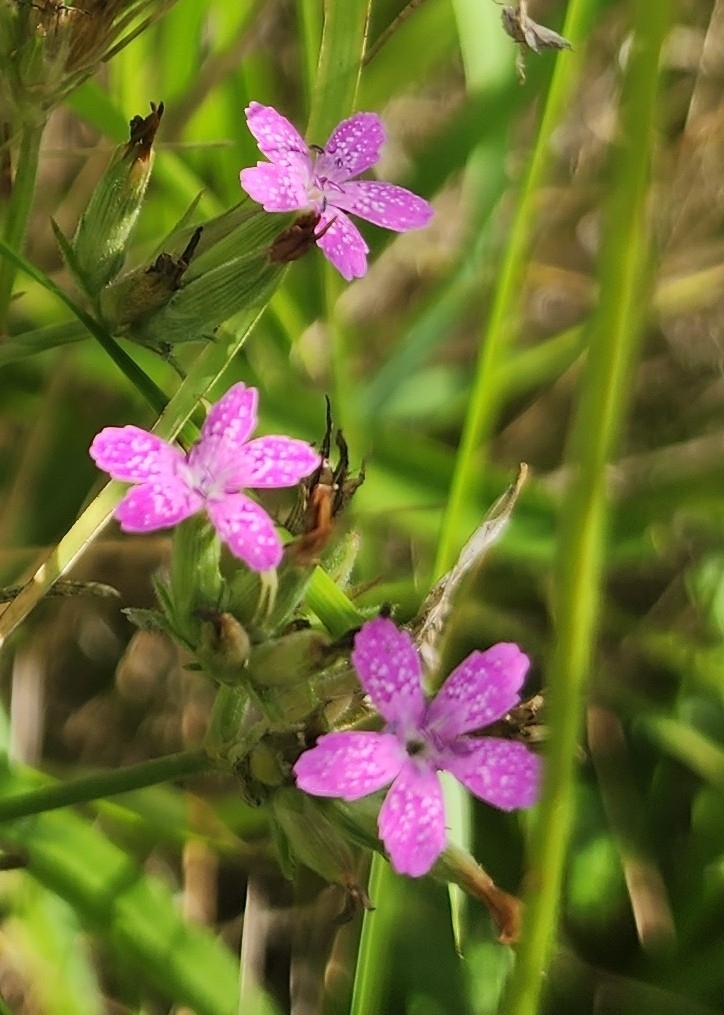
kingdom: Plantae
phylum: Tracheophyta
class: Magnoliopsida
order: Caryophyllales
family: Caryophyllaceae
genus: Dianthus
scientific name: Dianthus armeria
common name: Deptford pink
